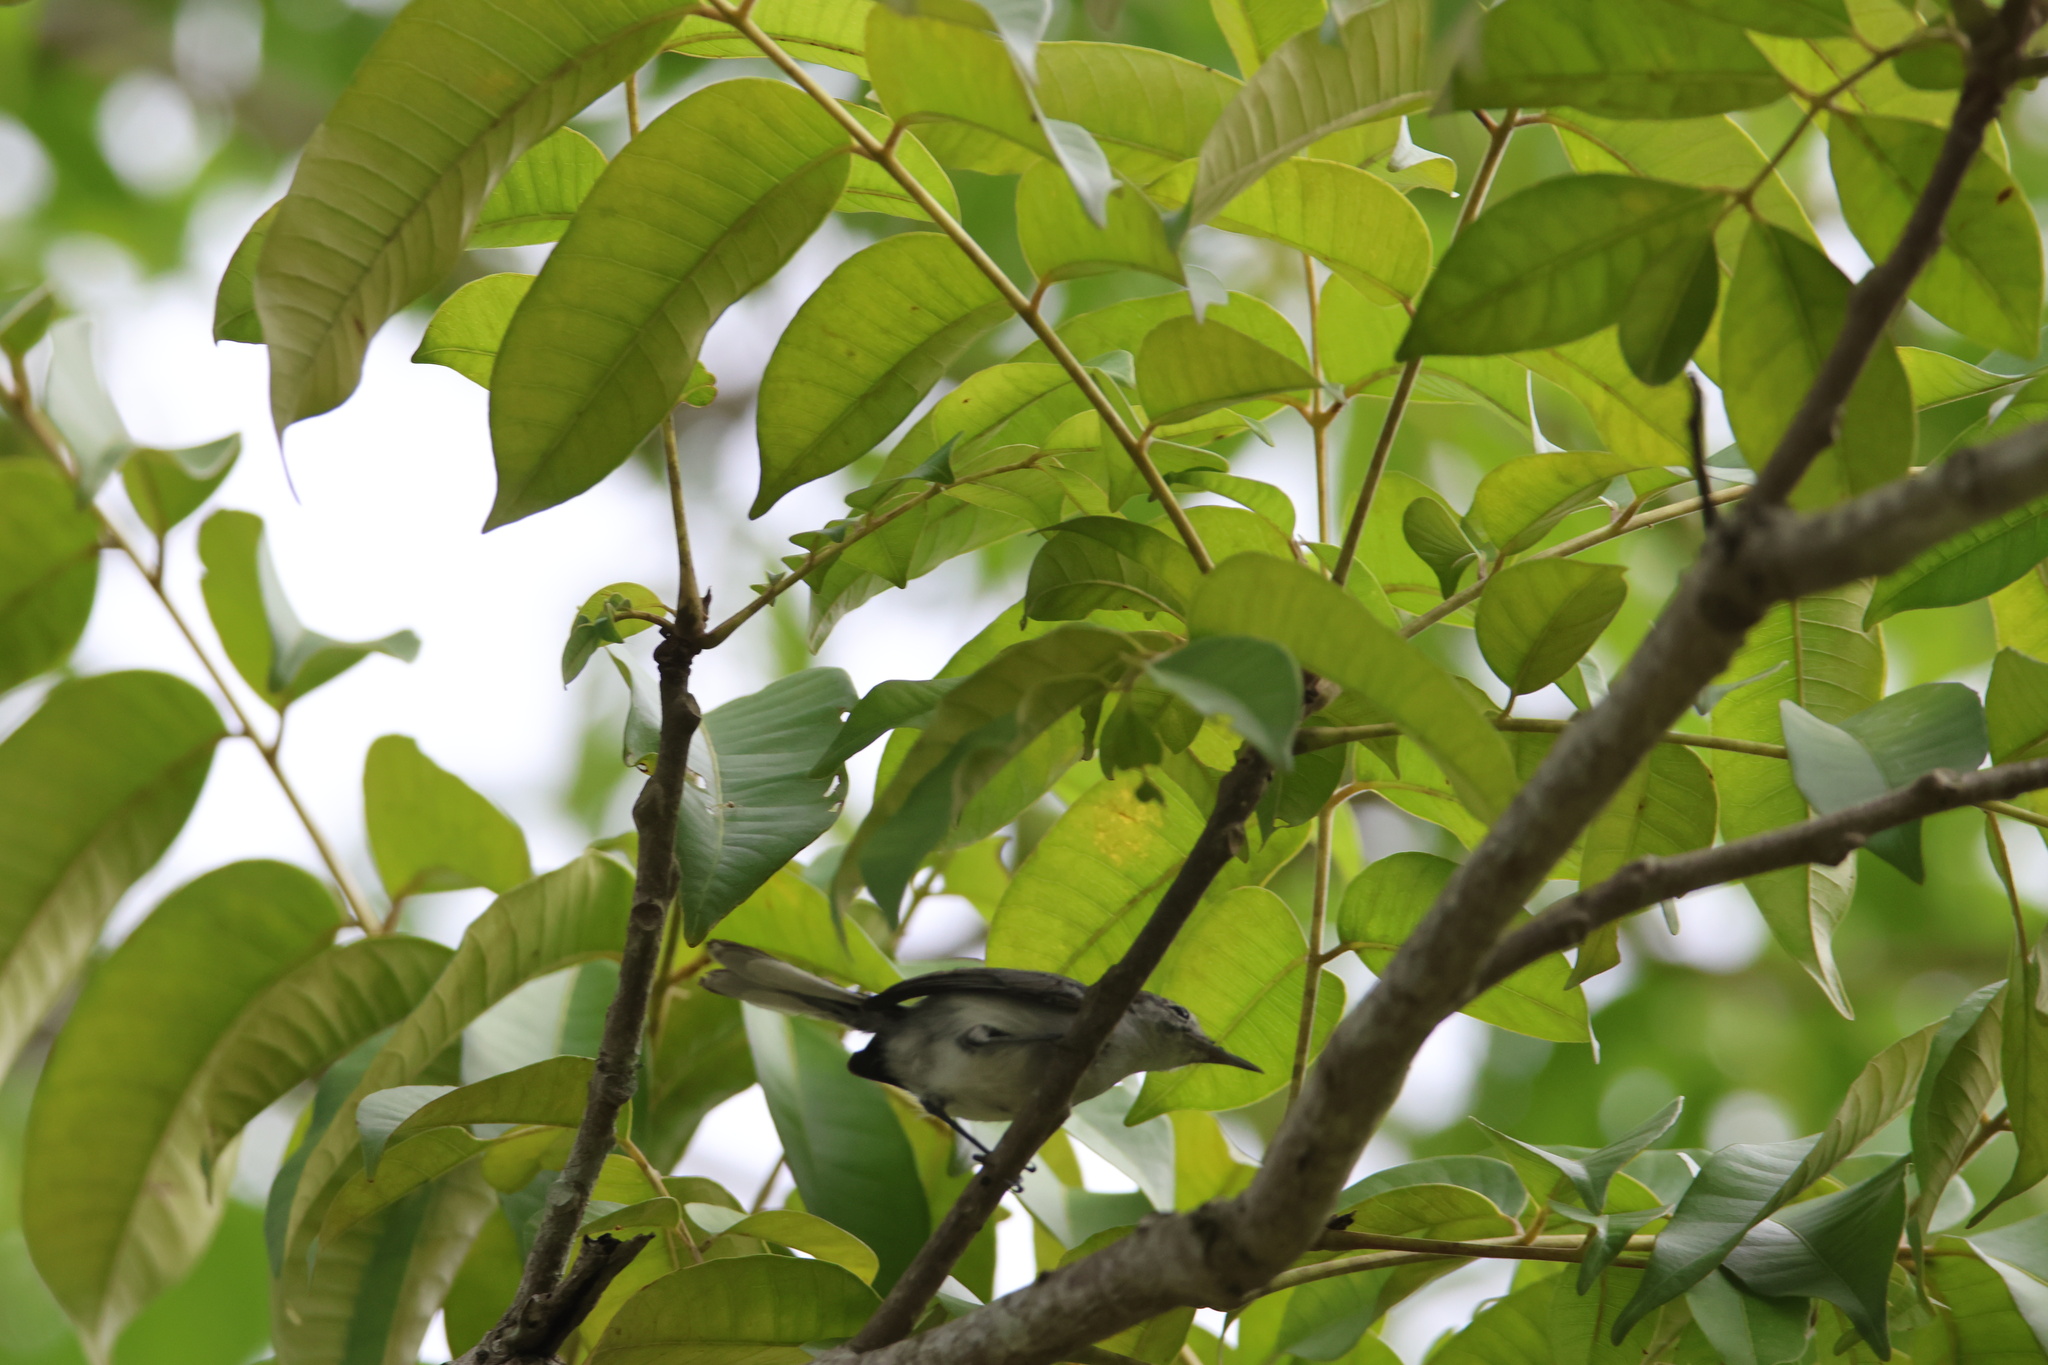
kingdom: Animalia
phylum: Chordata
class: Aves
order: Passeriformes
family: Polioptilidae
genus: Polioptila
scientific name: Polioptila plumbea
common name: Tropical gnatcatcher
